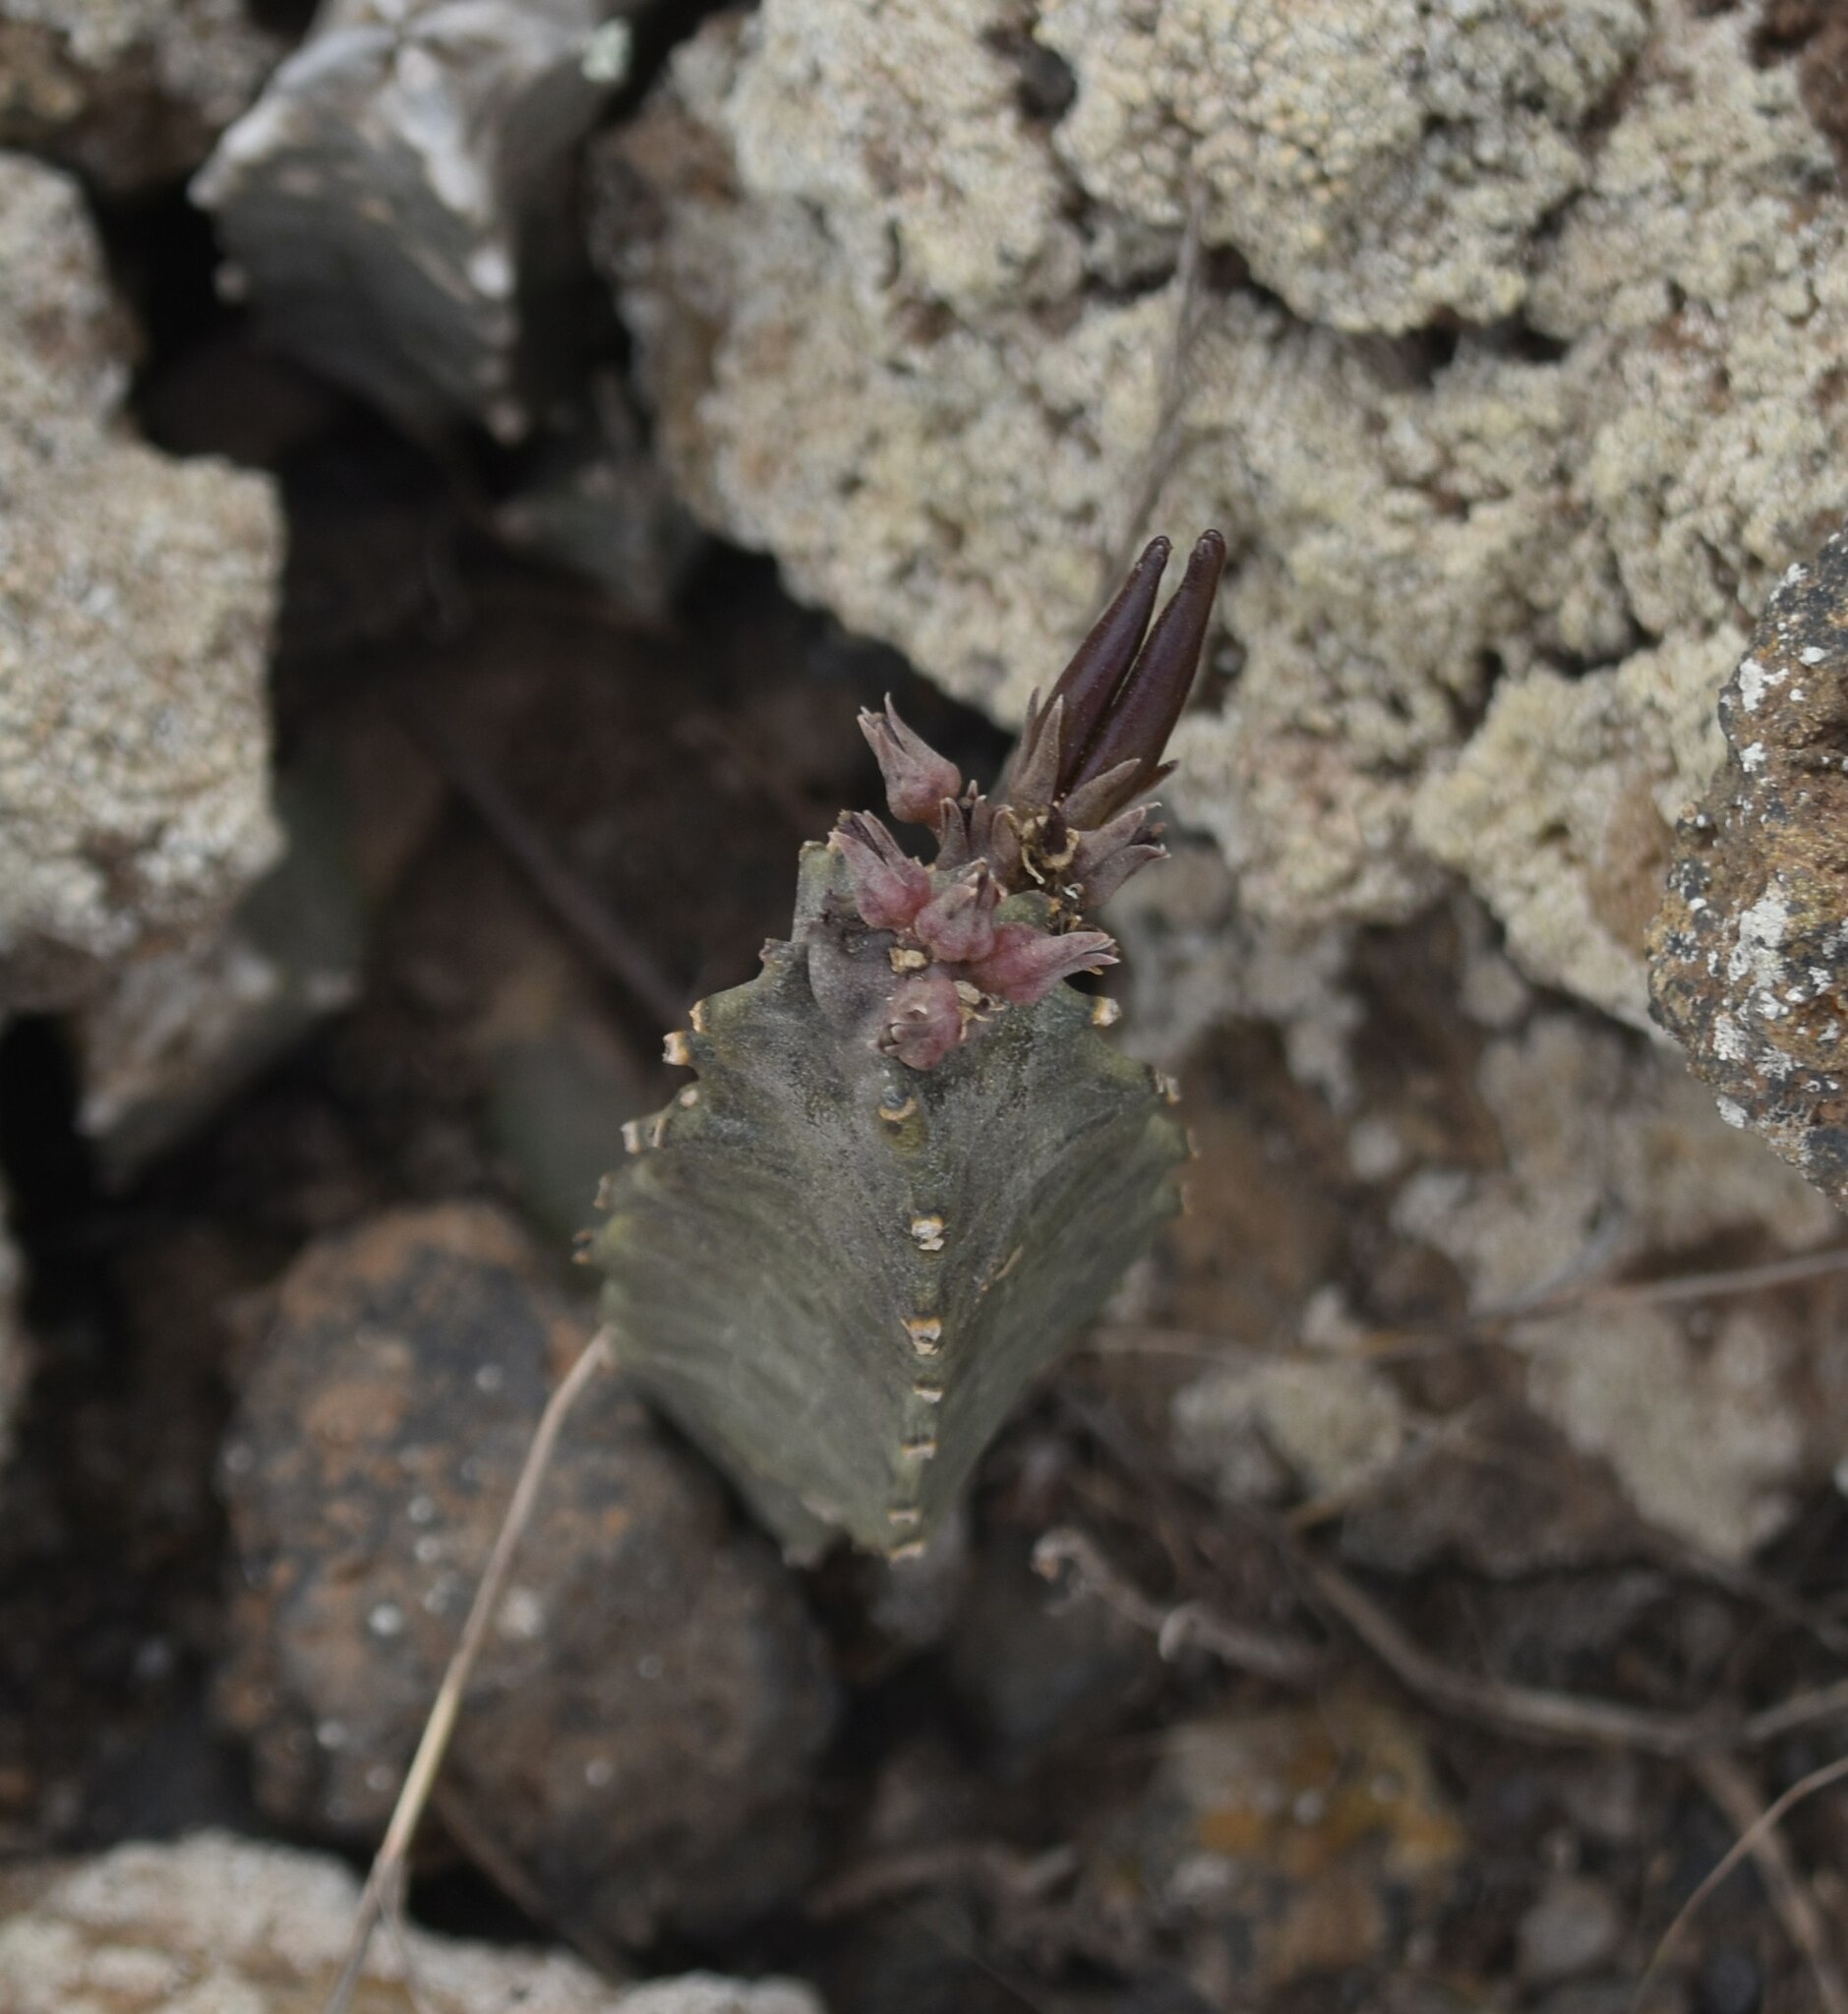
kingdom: Plantae
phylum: Tracheophyta
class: Magnoliopsida
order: Gentianales
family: Apocynaceae
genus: Ceropegia
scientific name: Ceropegia burchardii
